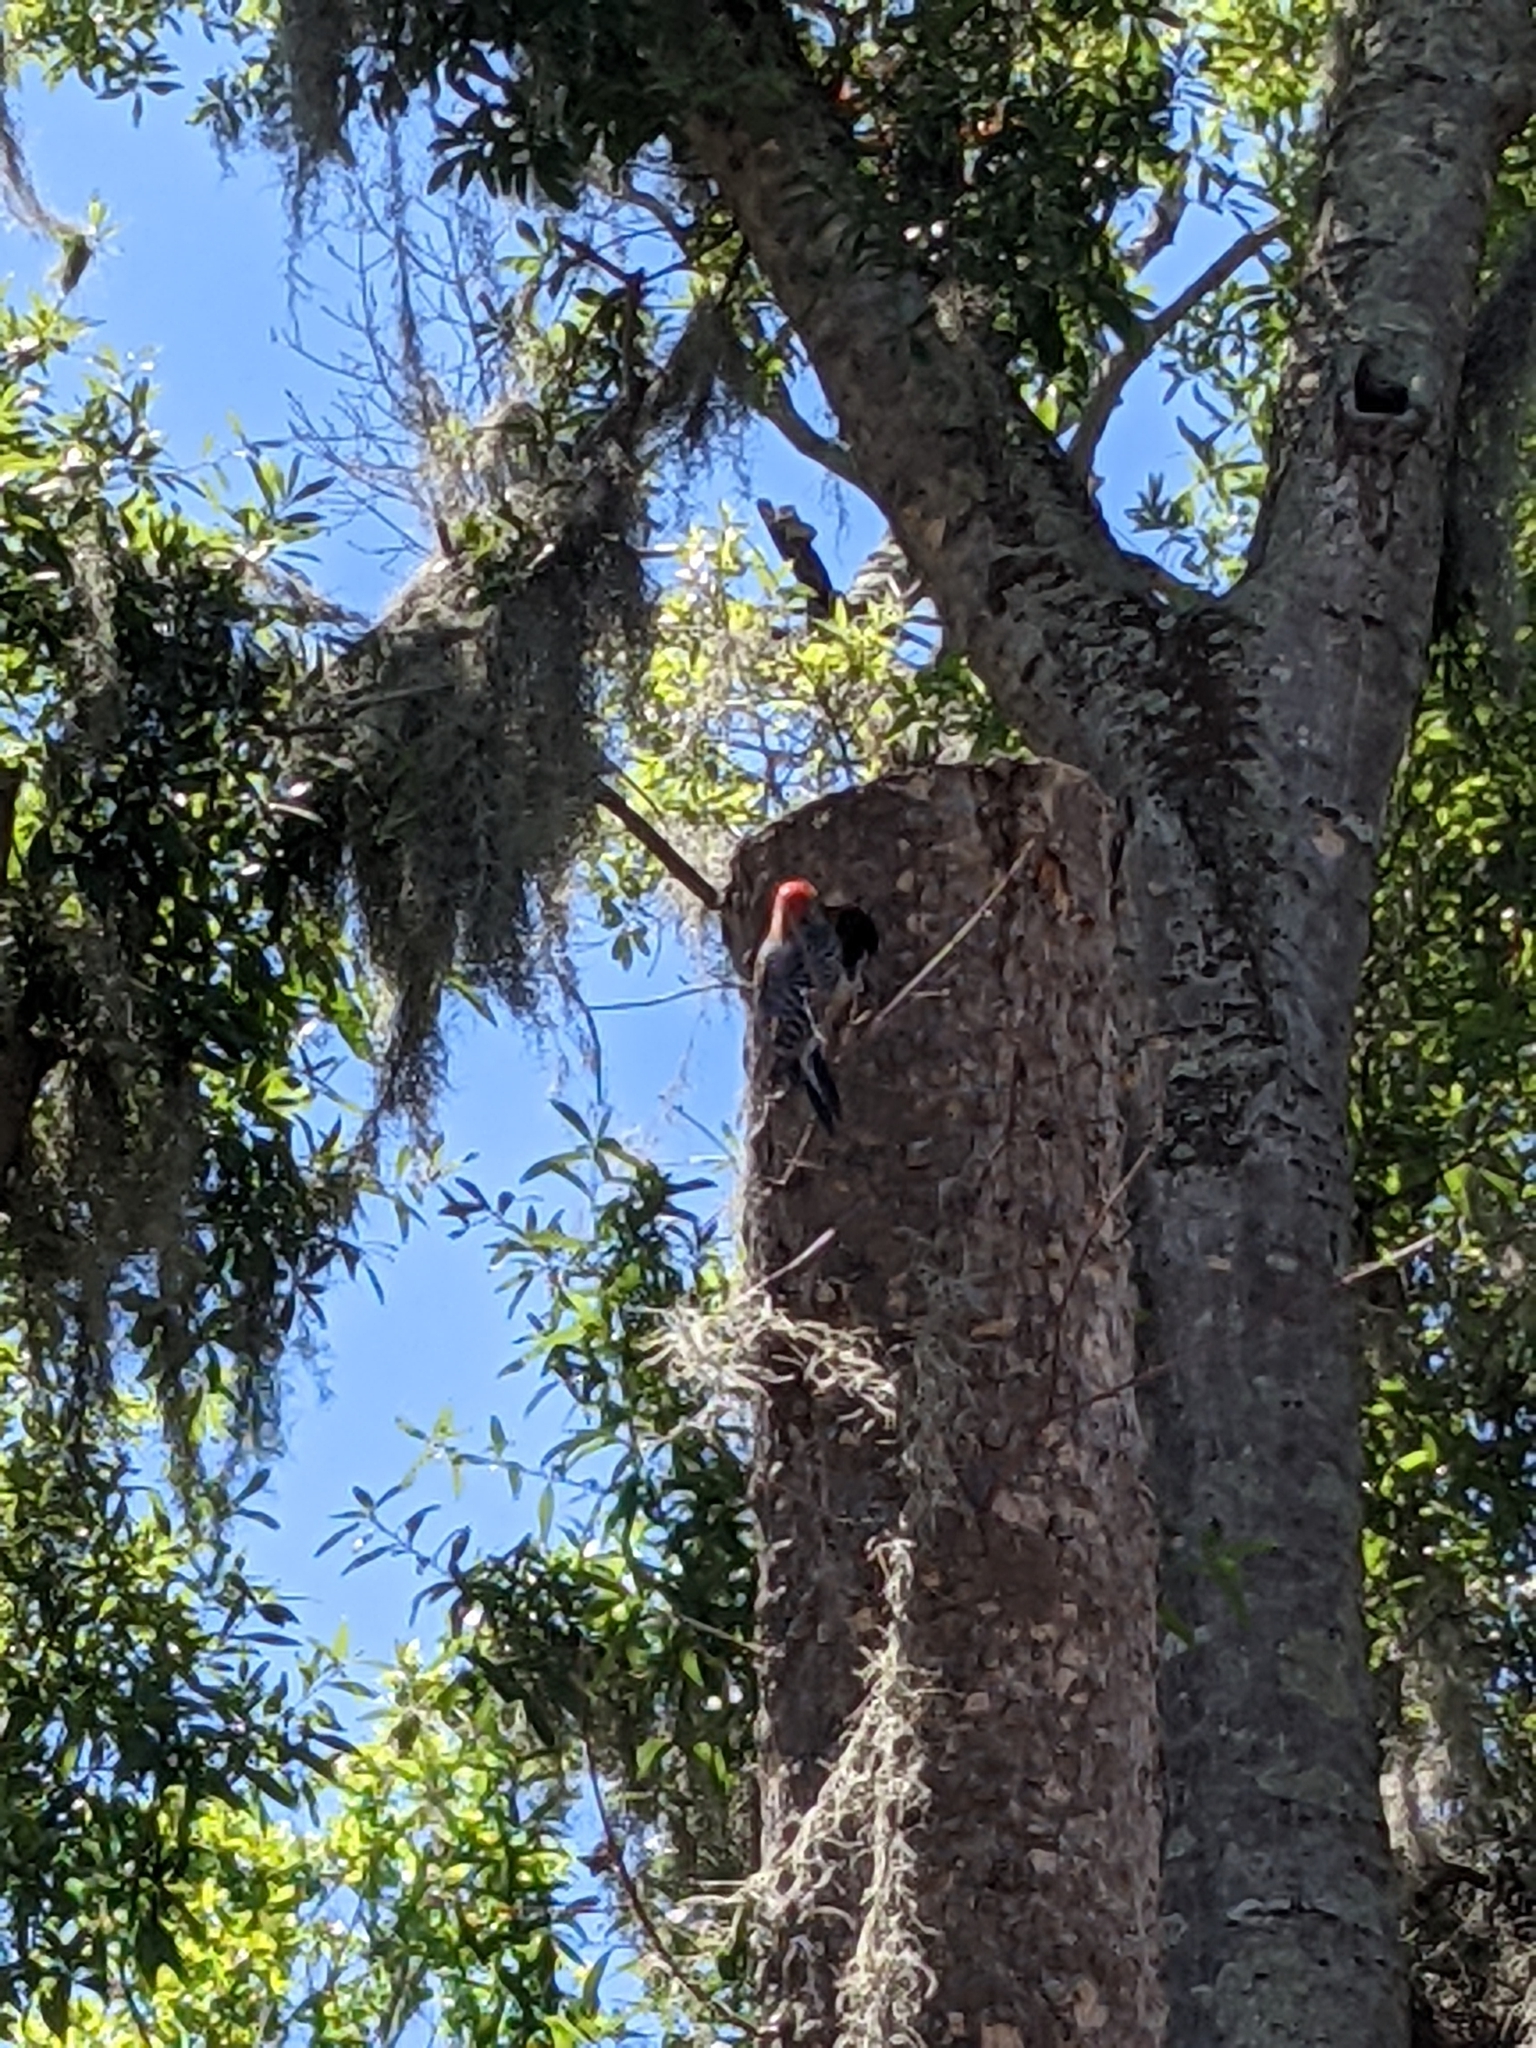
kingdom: Animalia
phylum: Chordata
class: Aves
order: Piciformes
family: Picidae
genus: Melanerpes
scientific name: Melanerpes carolinus
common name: Red-bellied woodpecker
